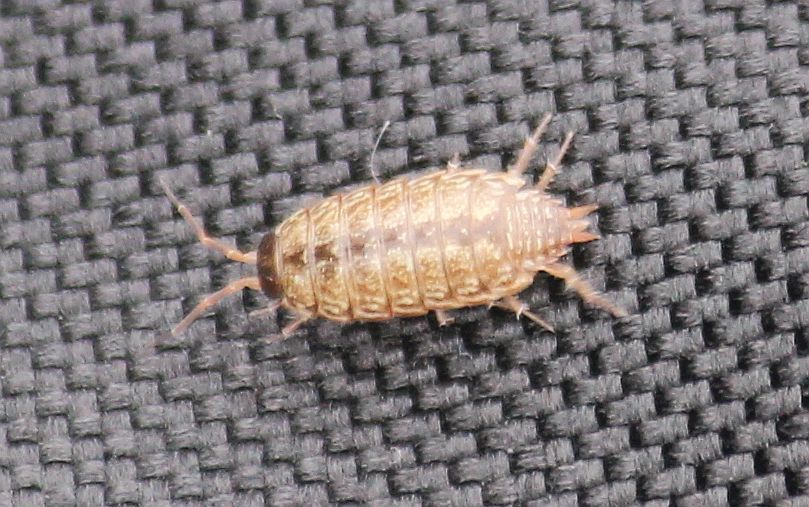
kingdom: Animalia
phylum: Arthropoda
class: Malacostraca
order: Isopoda
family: Philosciidae
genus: Philoscia
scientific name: Philoscia muscorum
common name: Common striped woodlouse
